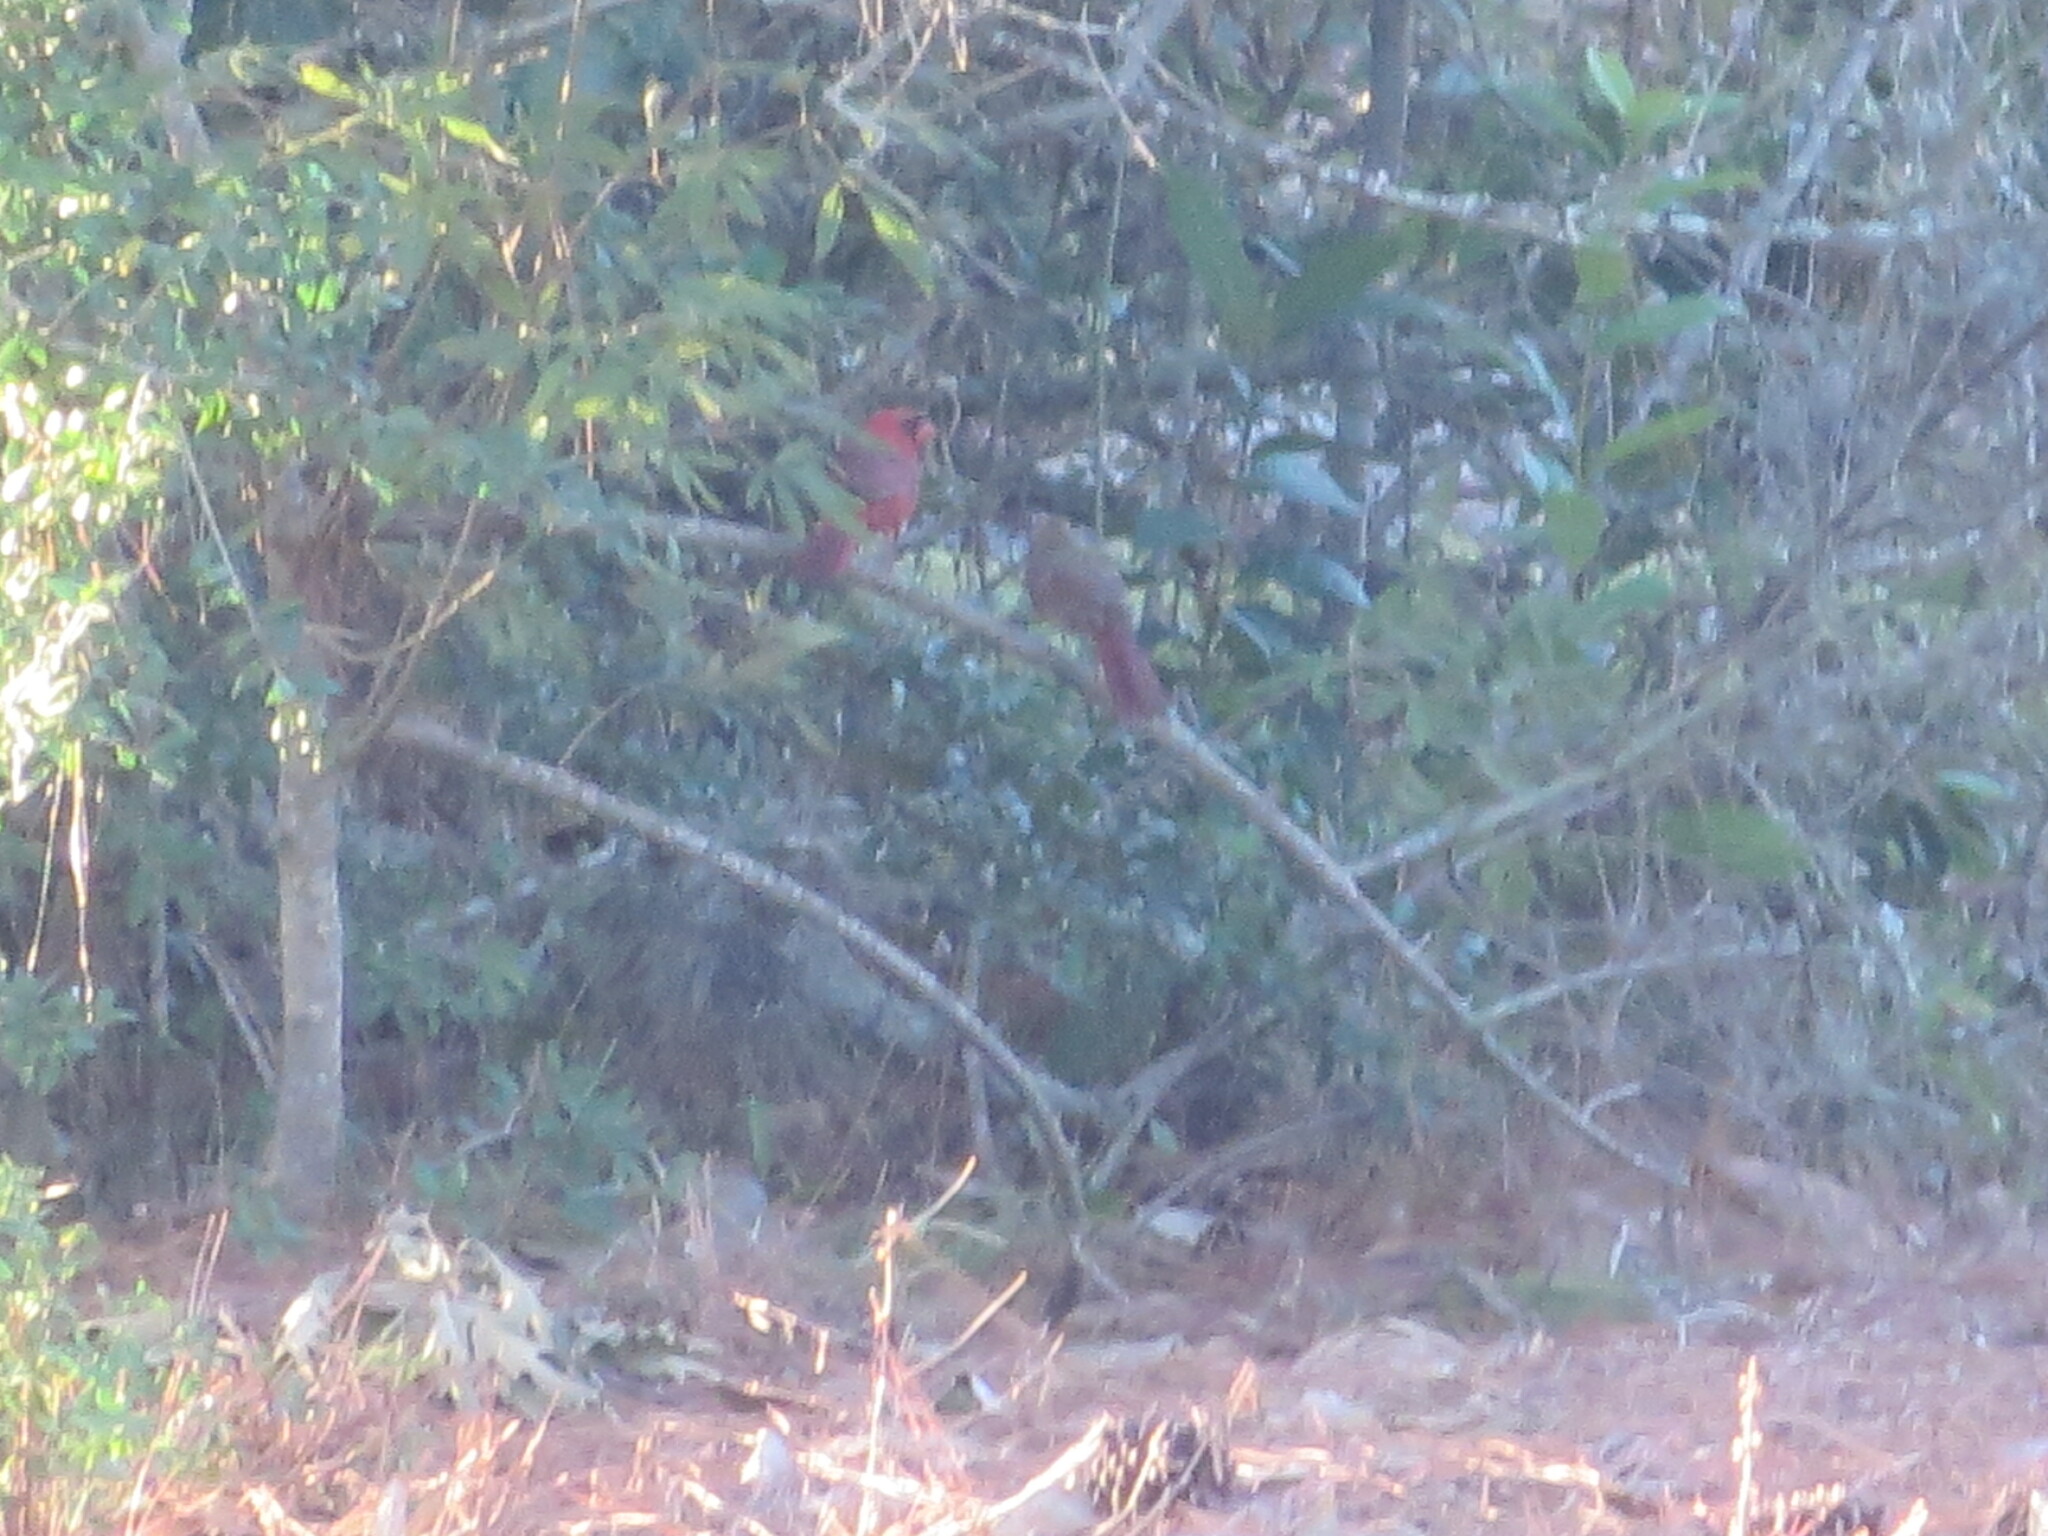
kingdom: Animalia
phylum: Chordata
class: Aves
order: Passeriformes
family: Cardinalidae
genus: Cardinalis
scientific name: Cardinalis cardinalis
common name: Northern cardinal
